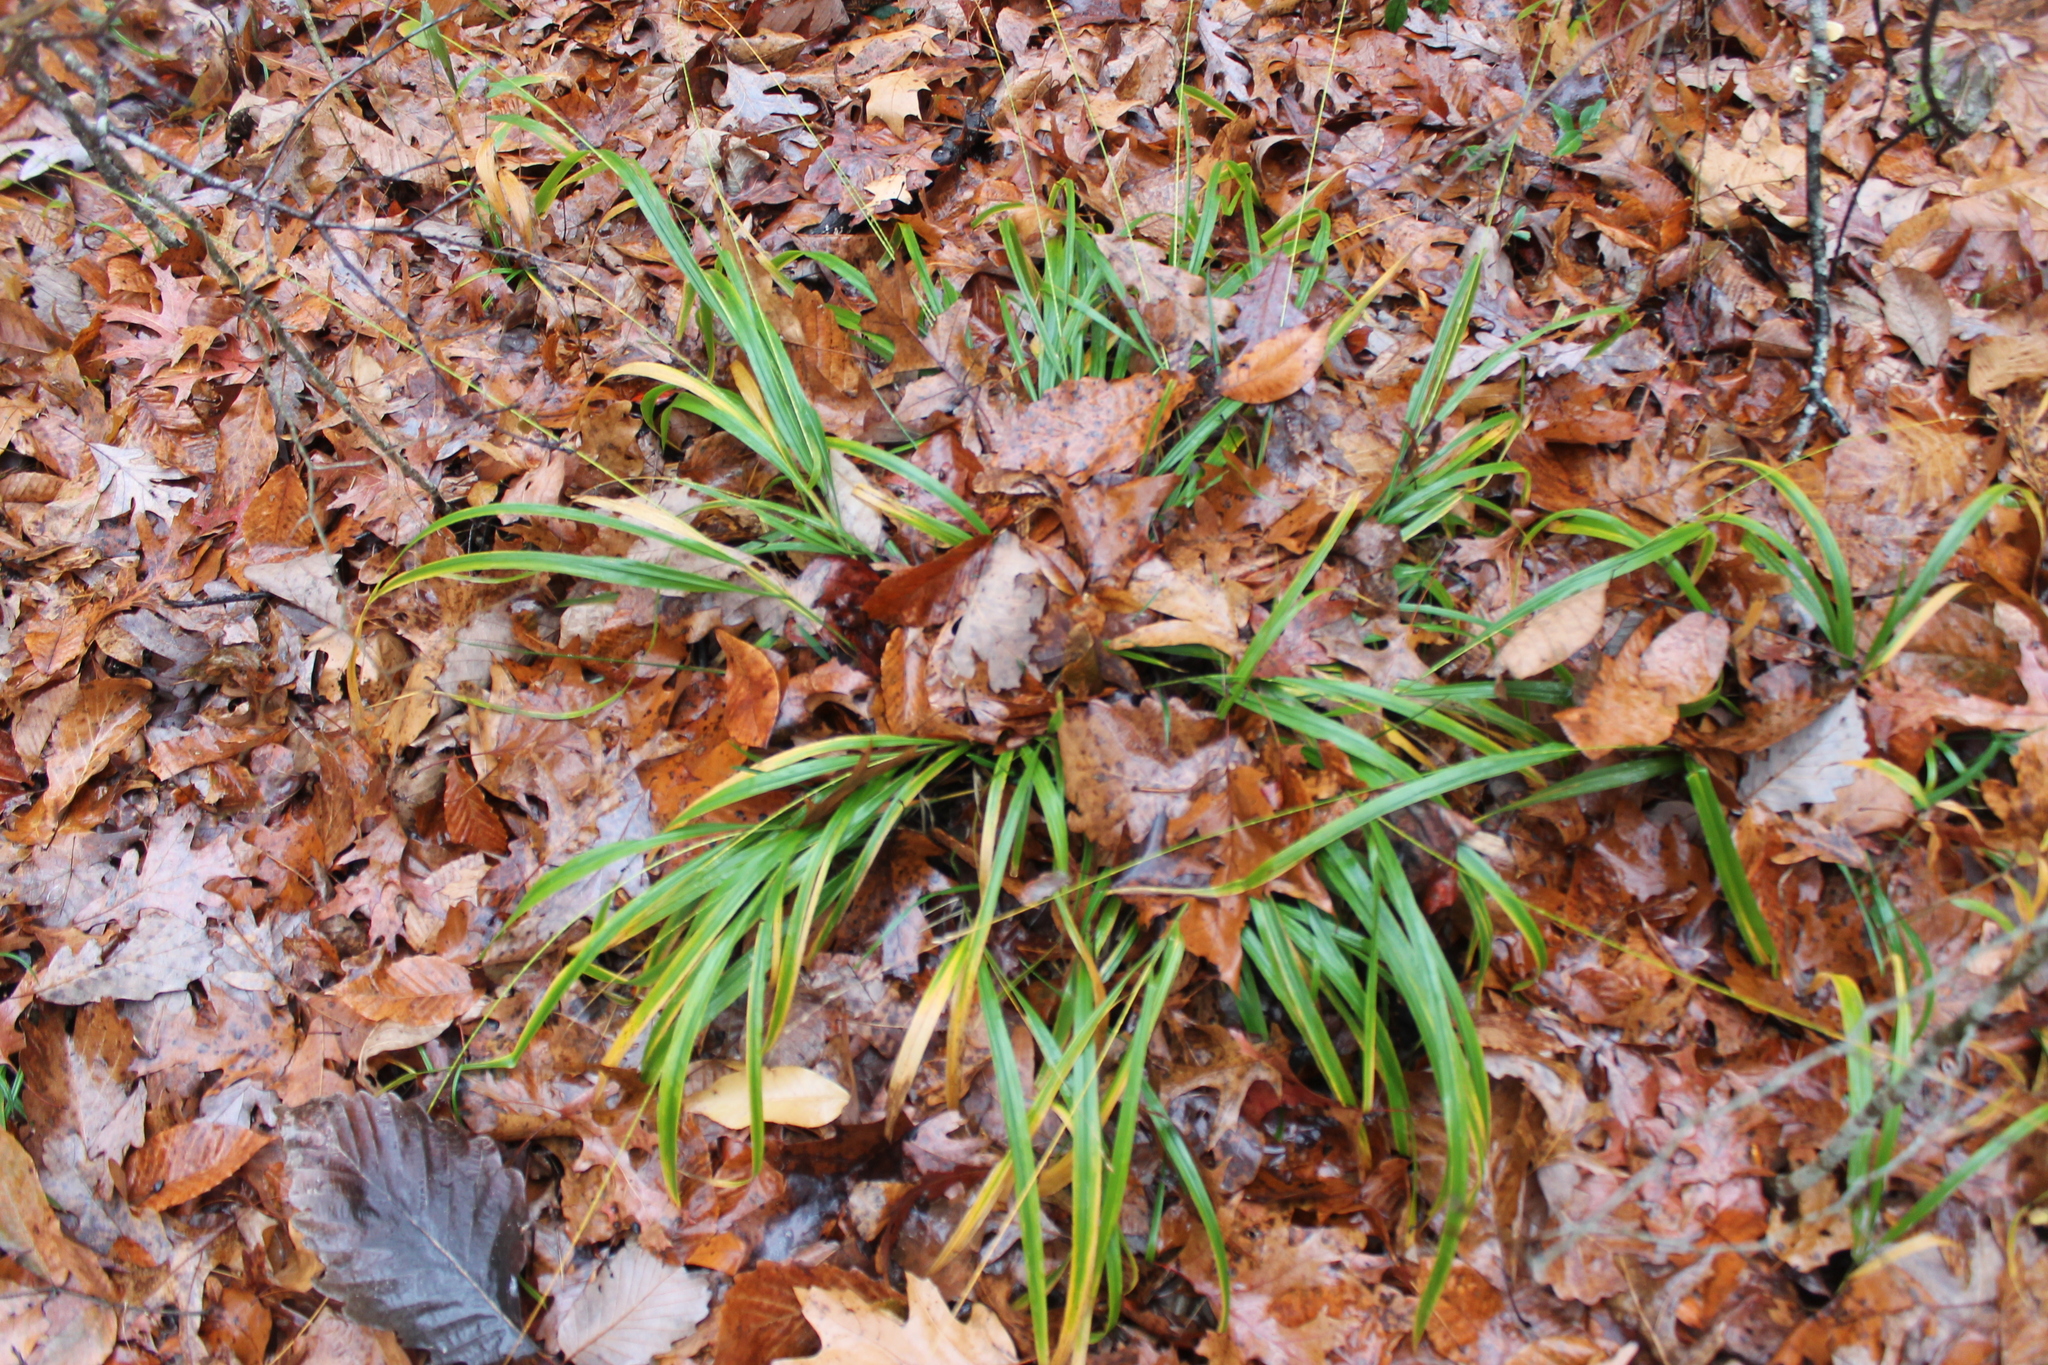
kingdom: Plantae
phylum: Tracheophyta
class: Liliopsida
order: Poales
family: Poaceae
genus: Diarrhena
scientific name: Diarrhena americana
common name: American beakgrain
